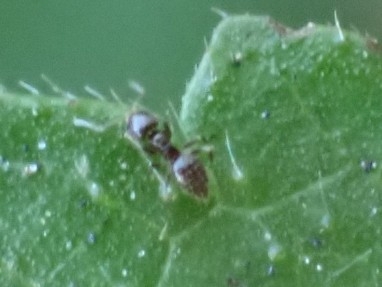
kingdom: Animalia
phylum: Arthropoda
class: Insecta
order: Hymenoptera
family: Formicidae
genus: Brachymyrmex
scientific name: Brachymyrmex cordemoyi
